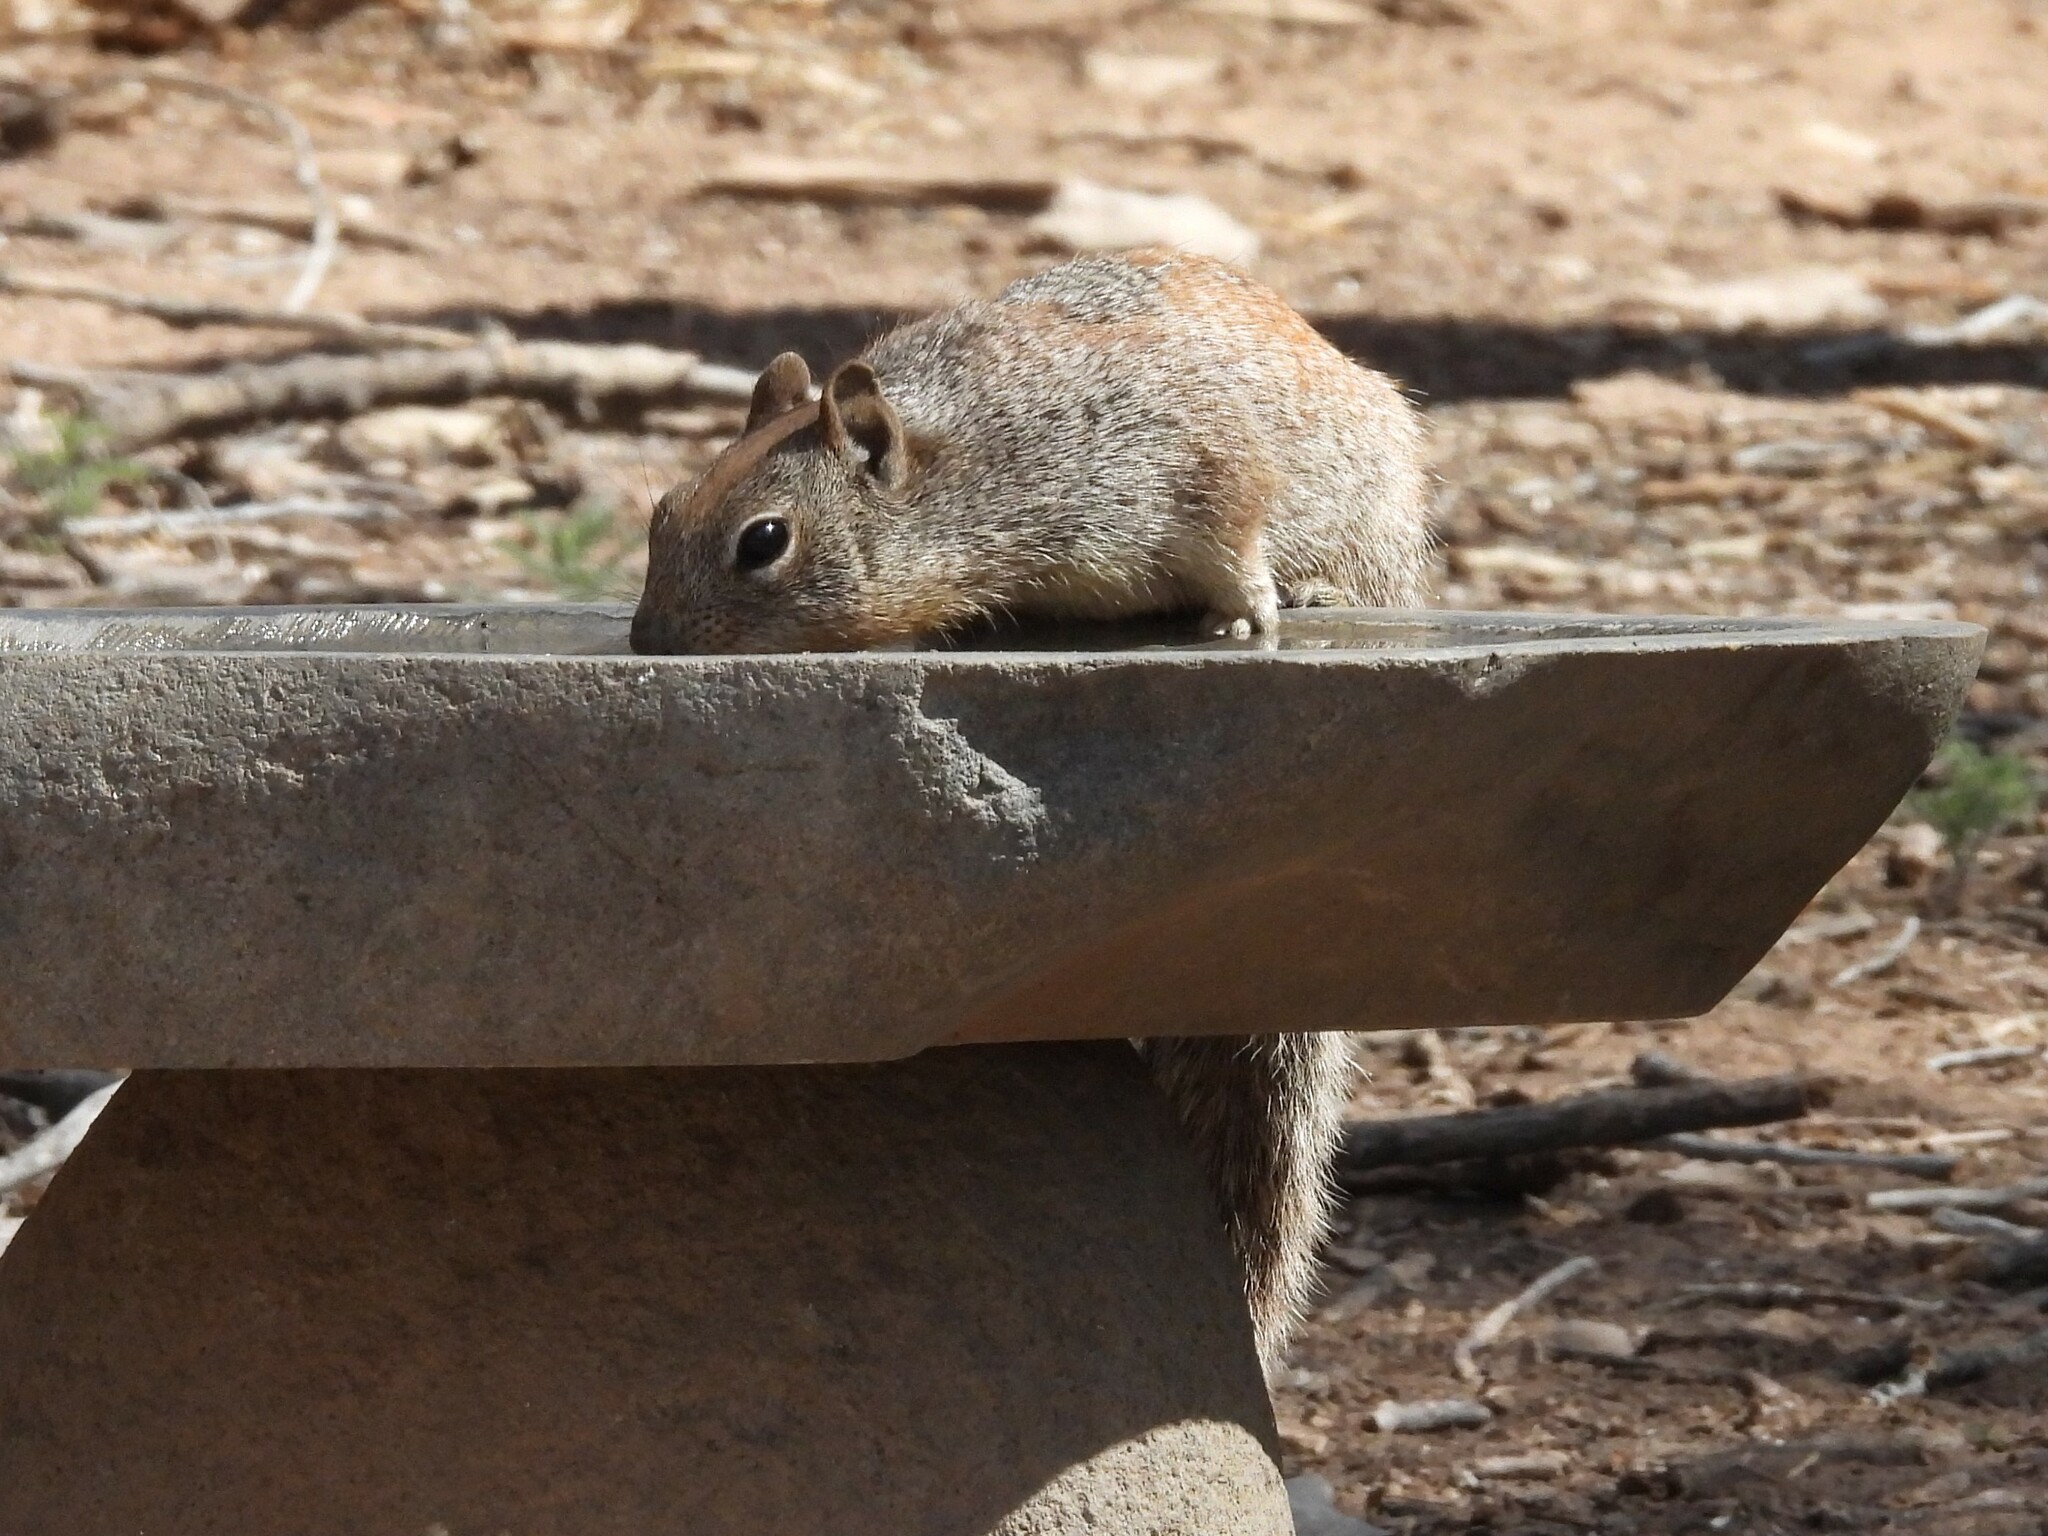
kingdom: Animalia
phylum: Chordata
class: Mammalia
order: Rodentia
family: Sciuridae
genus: Otospermophilus
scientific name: Otospermophilus variegatus
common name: Rock squirrel
